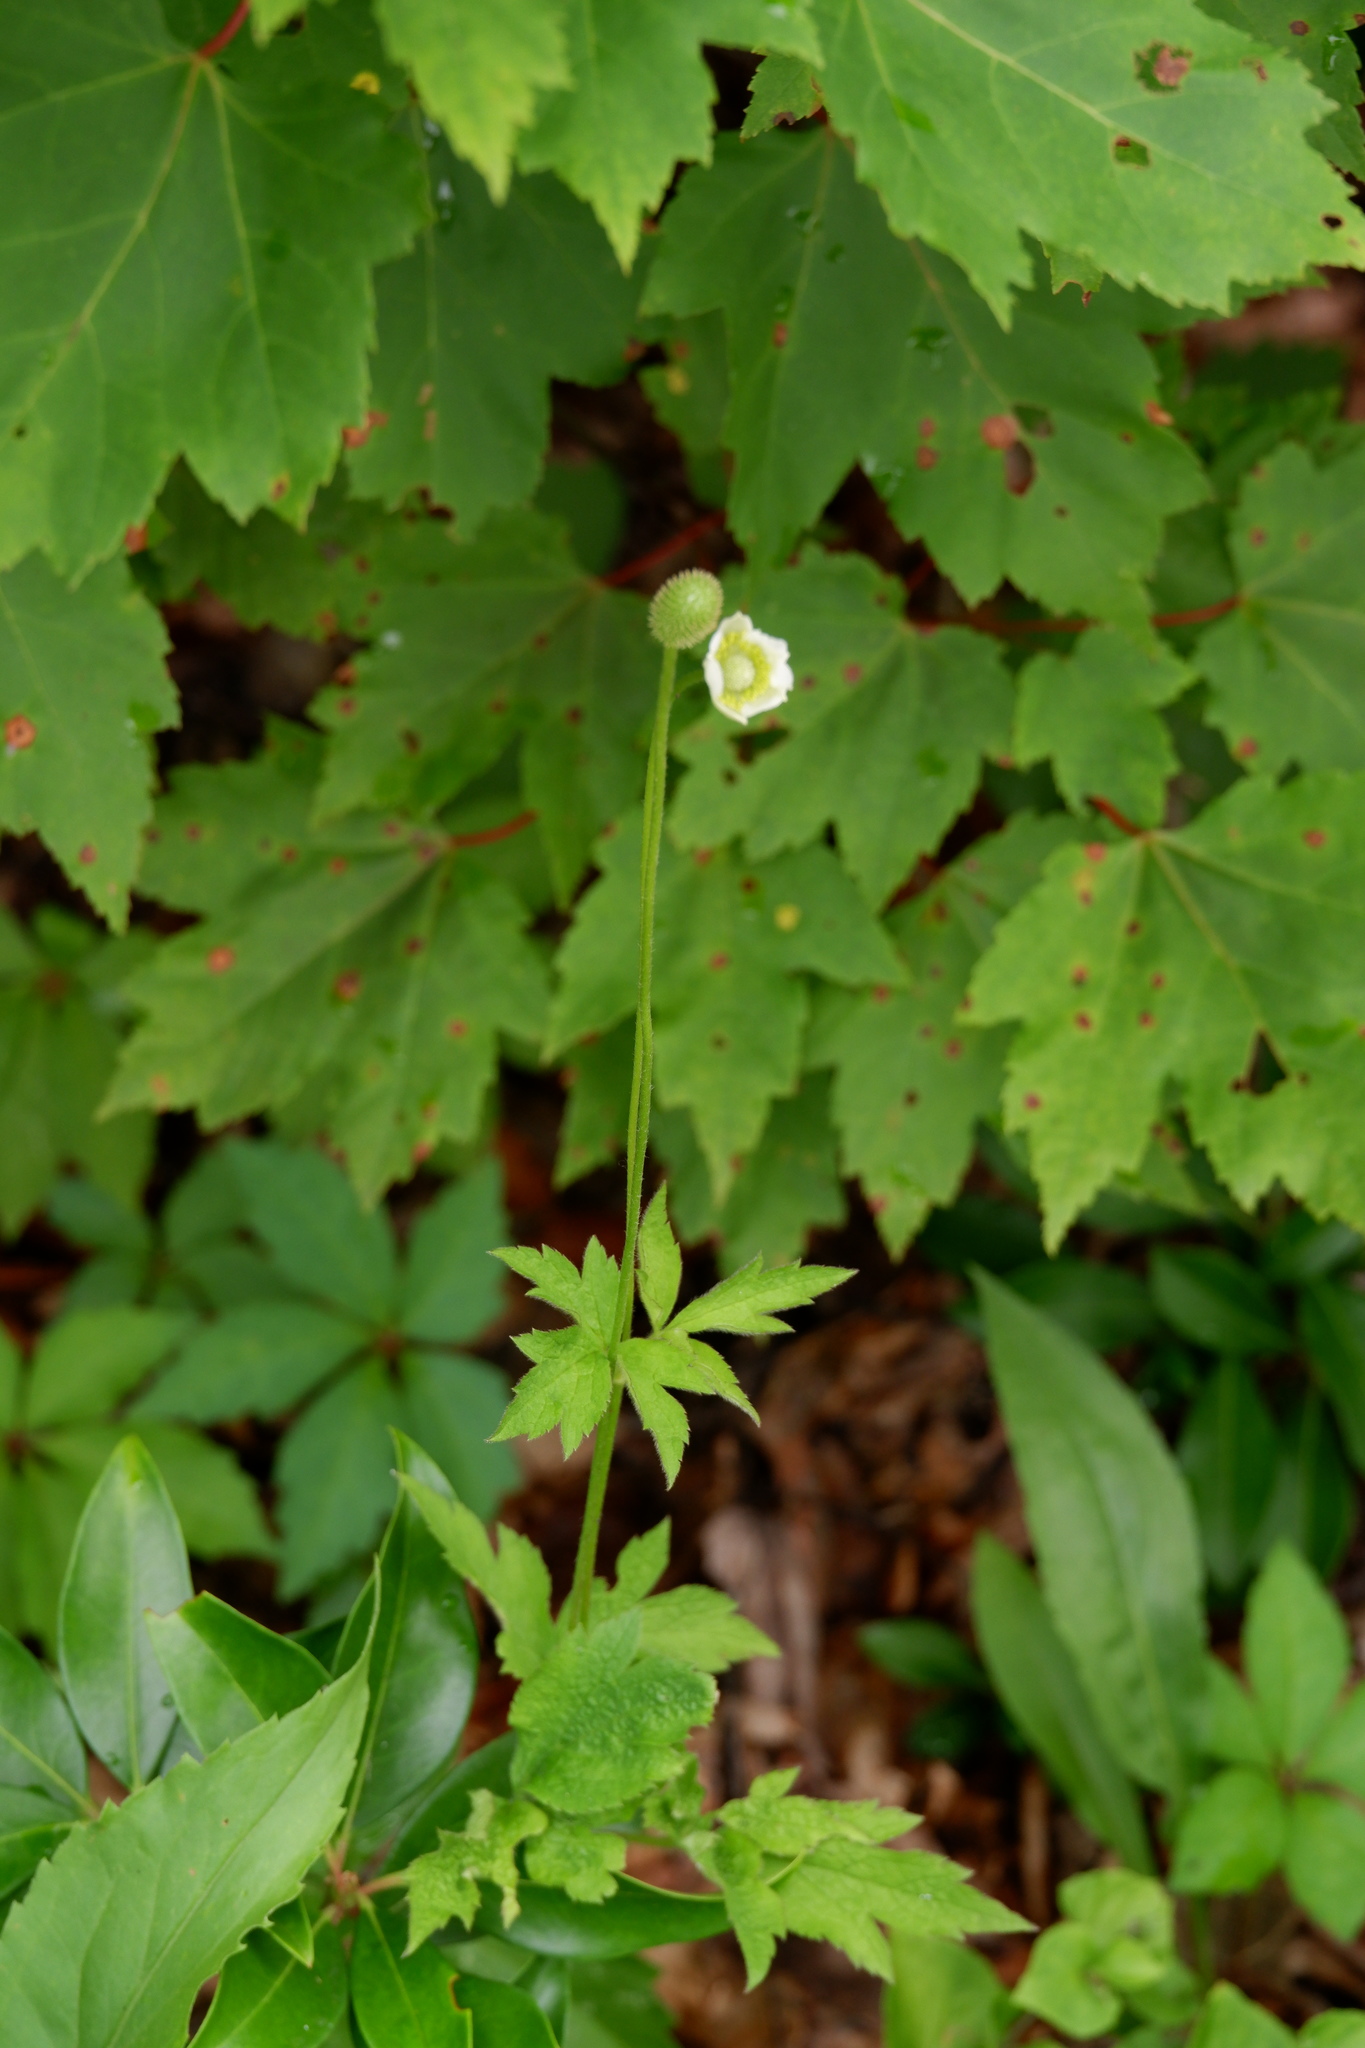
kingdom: Plantae
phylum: Tracheophyta
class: Magnoliopsida
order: Ranunculales
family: Ranunculaceae
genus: Anemone
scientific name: Anemone virginiana
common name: Tall anemone
